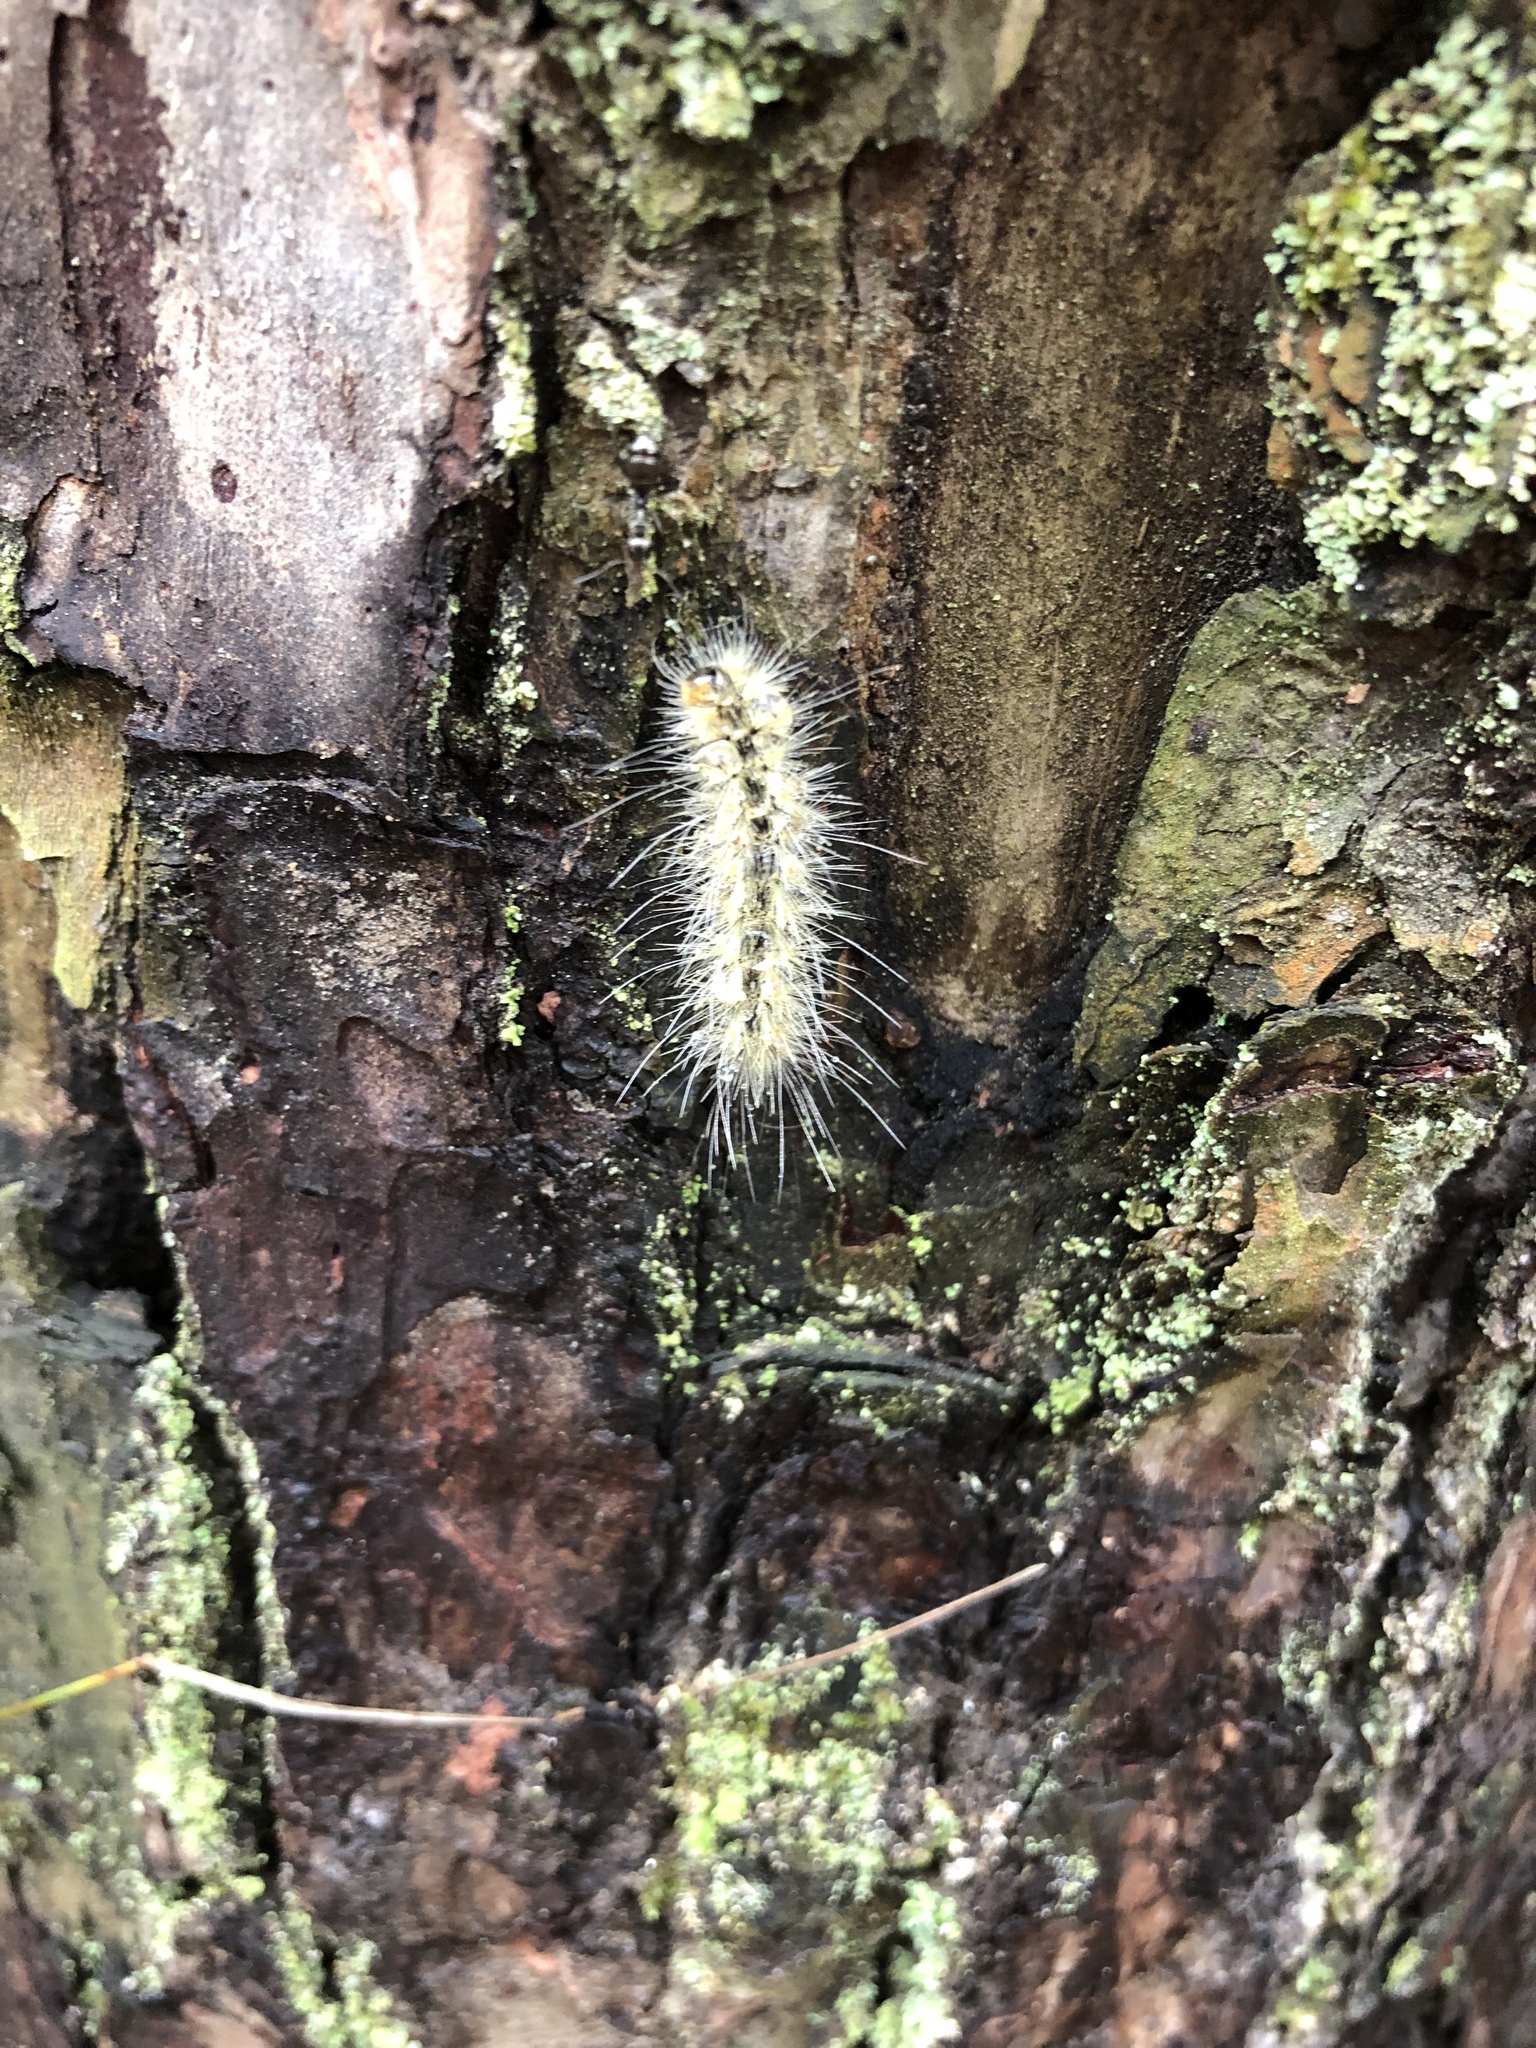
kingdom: Animalia
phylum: Arthropoda
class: Insecta
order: Lepidoptera
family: Erebidae
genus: Hyphantria
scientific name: Hyphantria cunea
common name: American white moth
